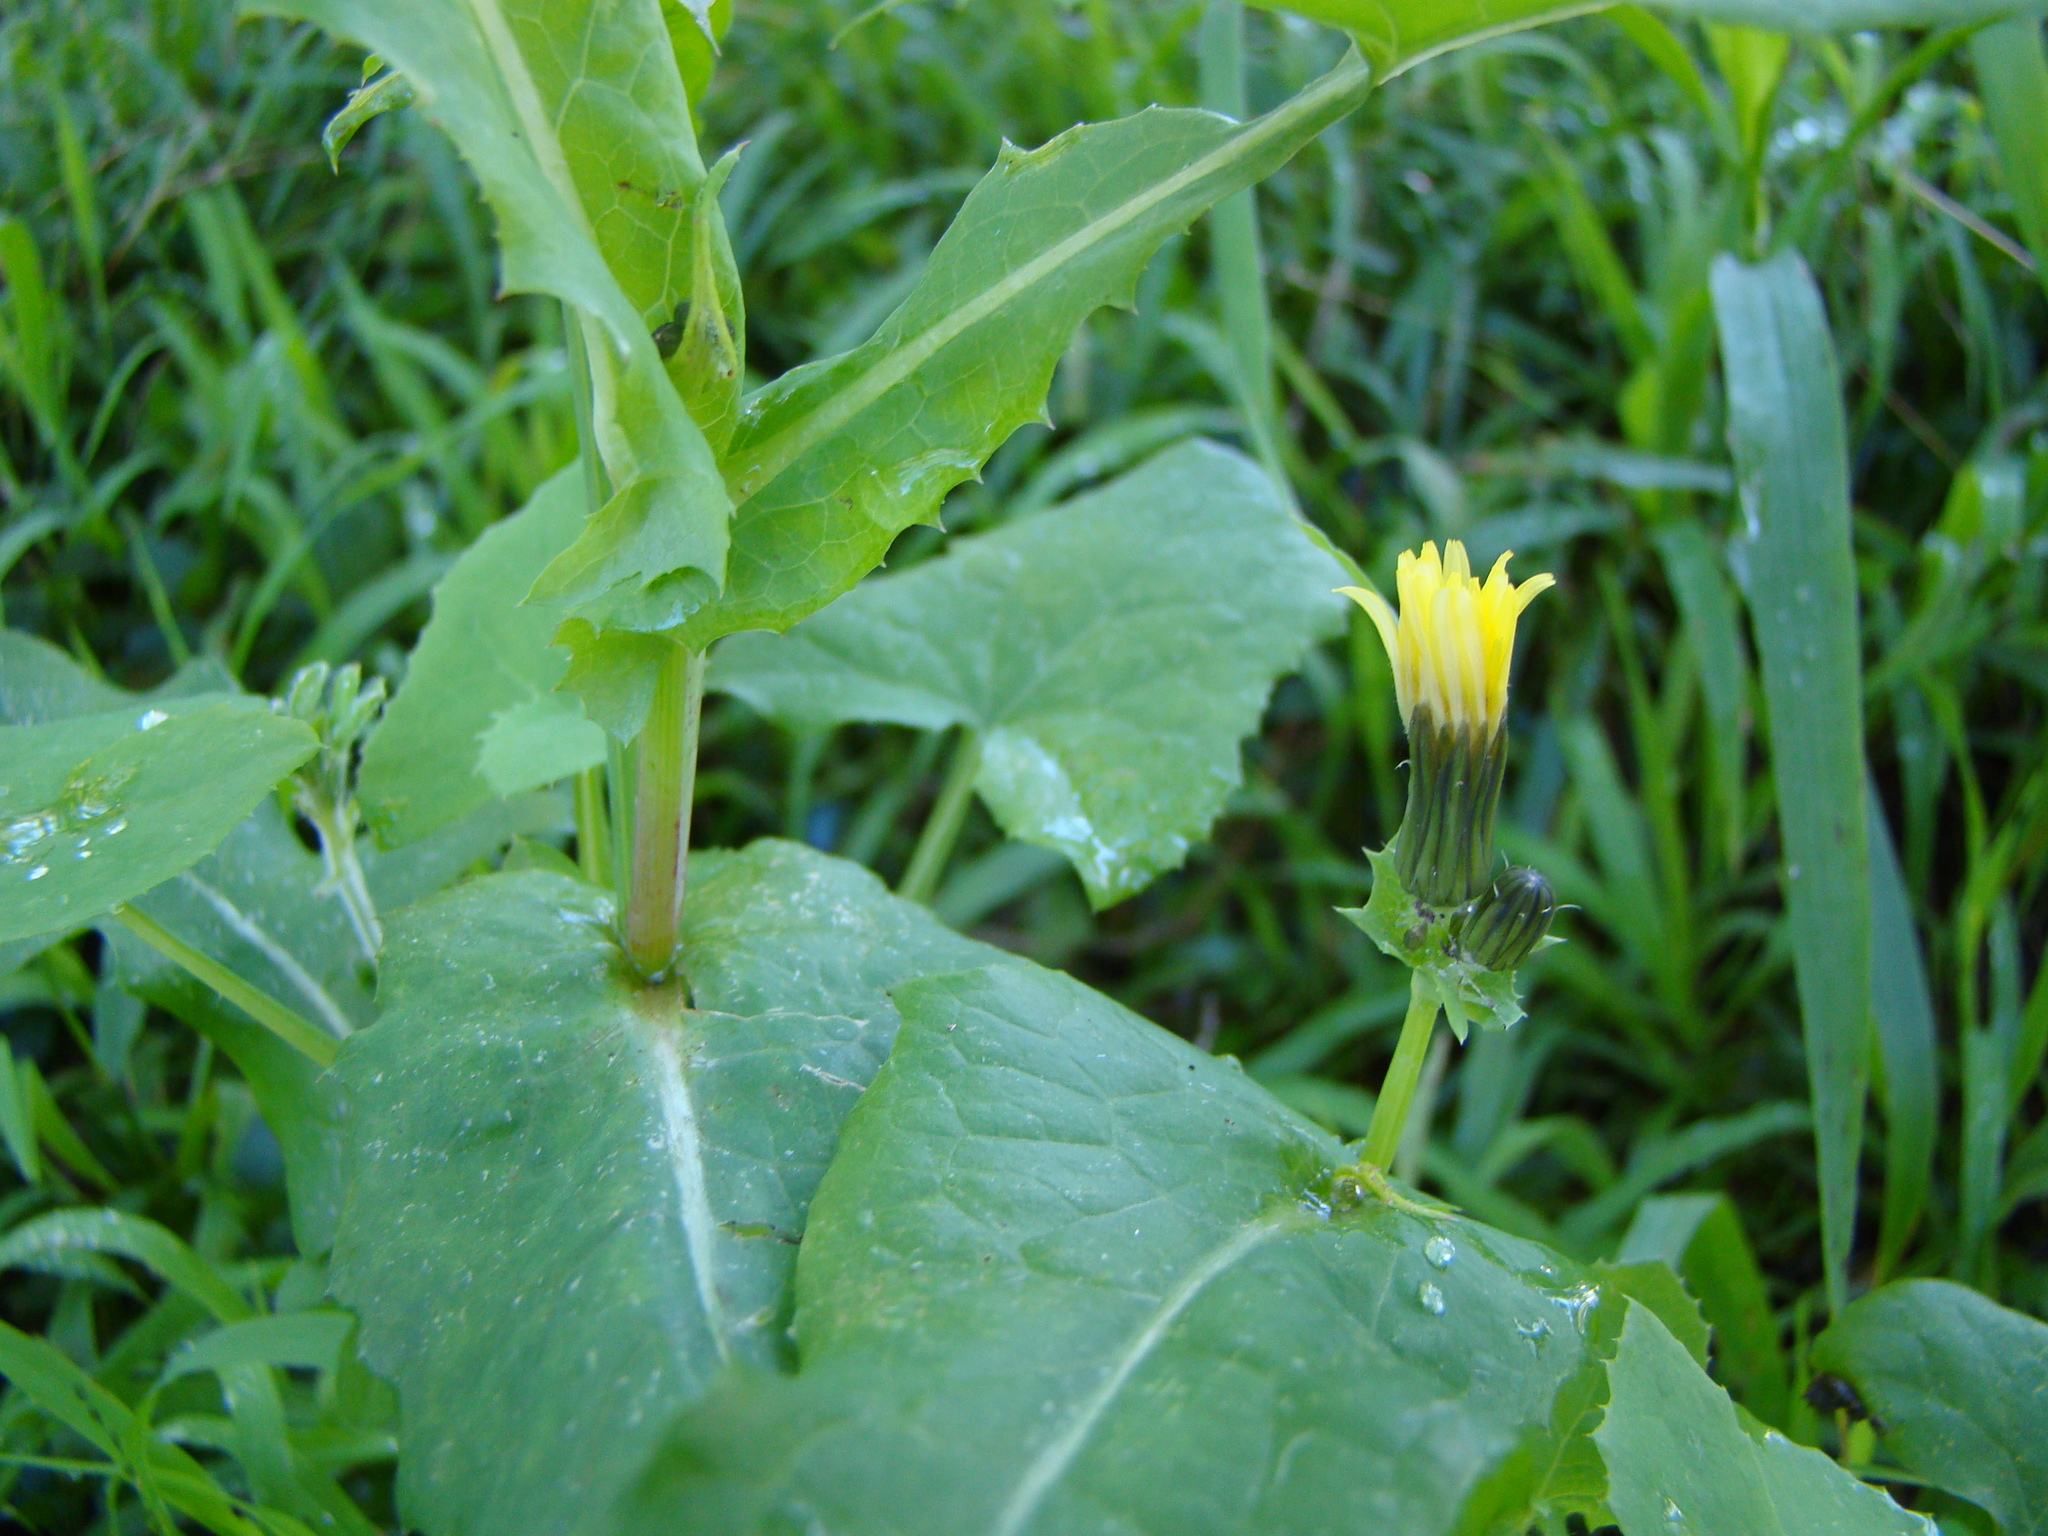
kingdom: Plantae
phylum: Tracheophyta
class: Magnoliopsida
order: Asterales
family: Asteraceae
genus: Sonchus
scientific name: Sonchus oleraceus
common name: Common sowthistle
